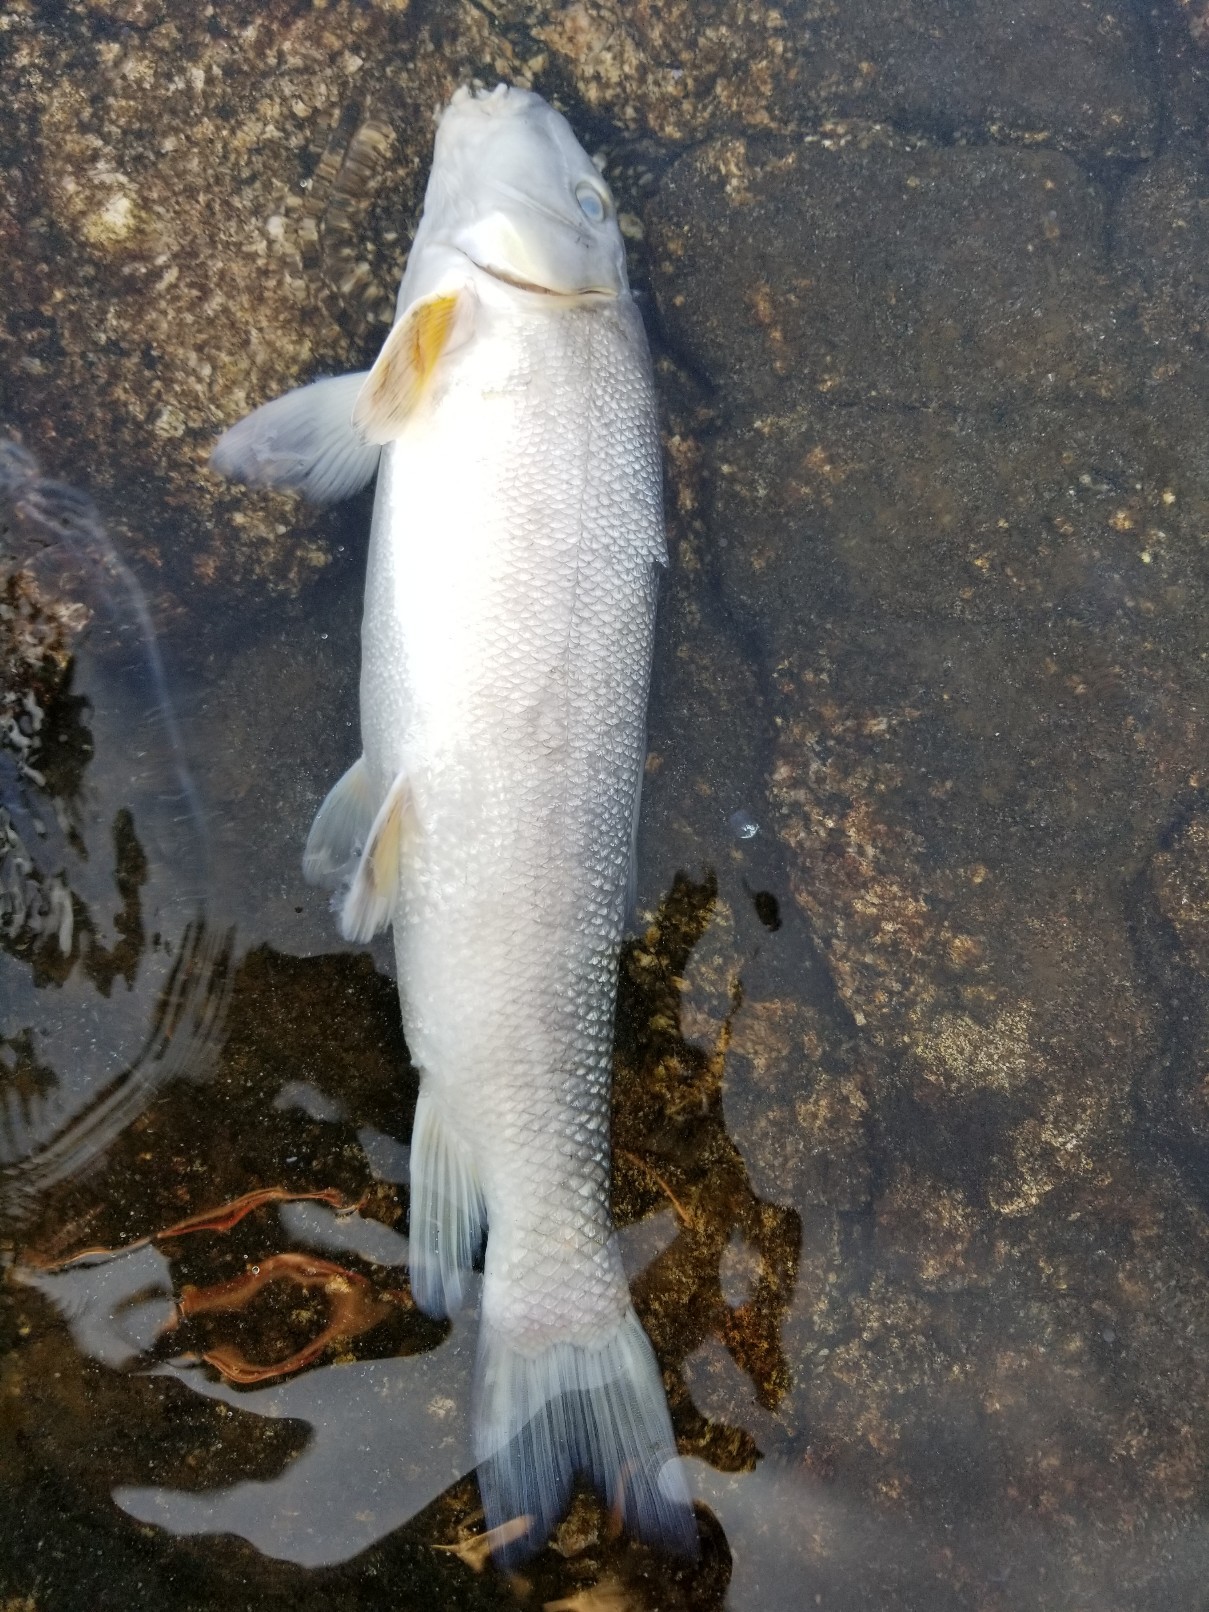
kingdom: Animalia
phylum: Chordata
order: Cypriniformes
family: Catostomidae
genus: Catostomus
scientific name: Catostomus commersonii
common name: White sucker
